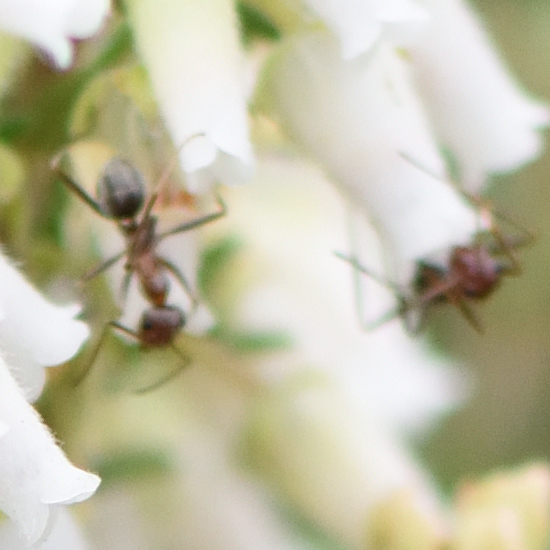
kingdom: Animalia
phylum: Arthropoda
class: Insecta
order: Hymenoptera
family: Formicidae
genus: Anoplolepis
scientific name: Anoplolepis custodiens
